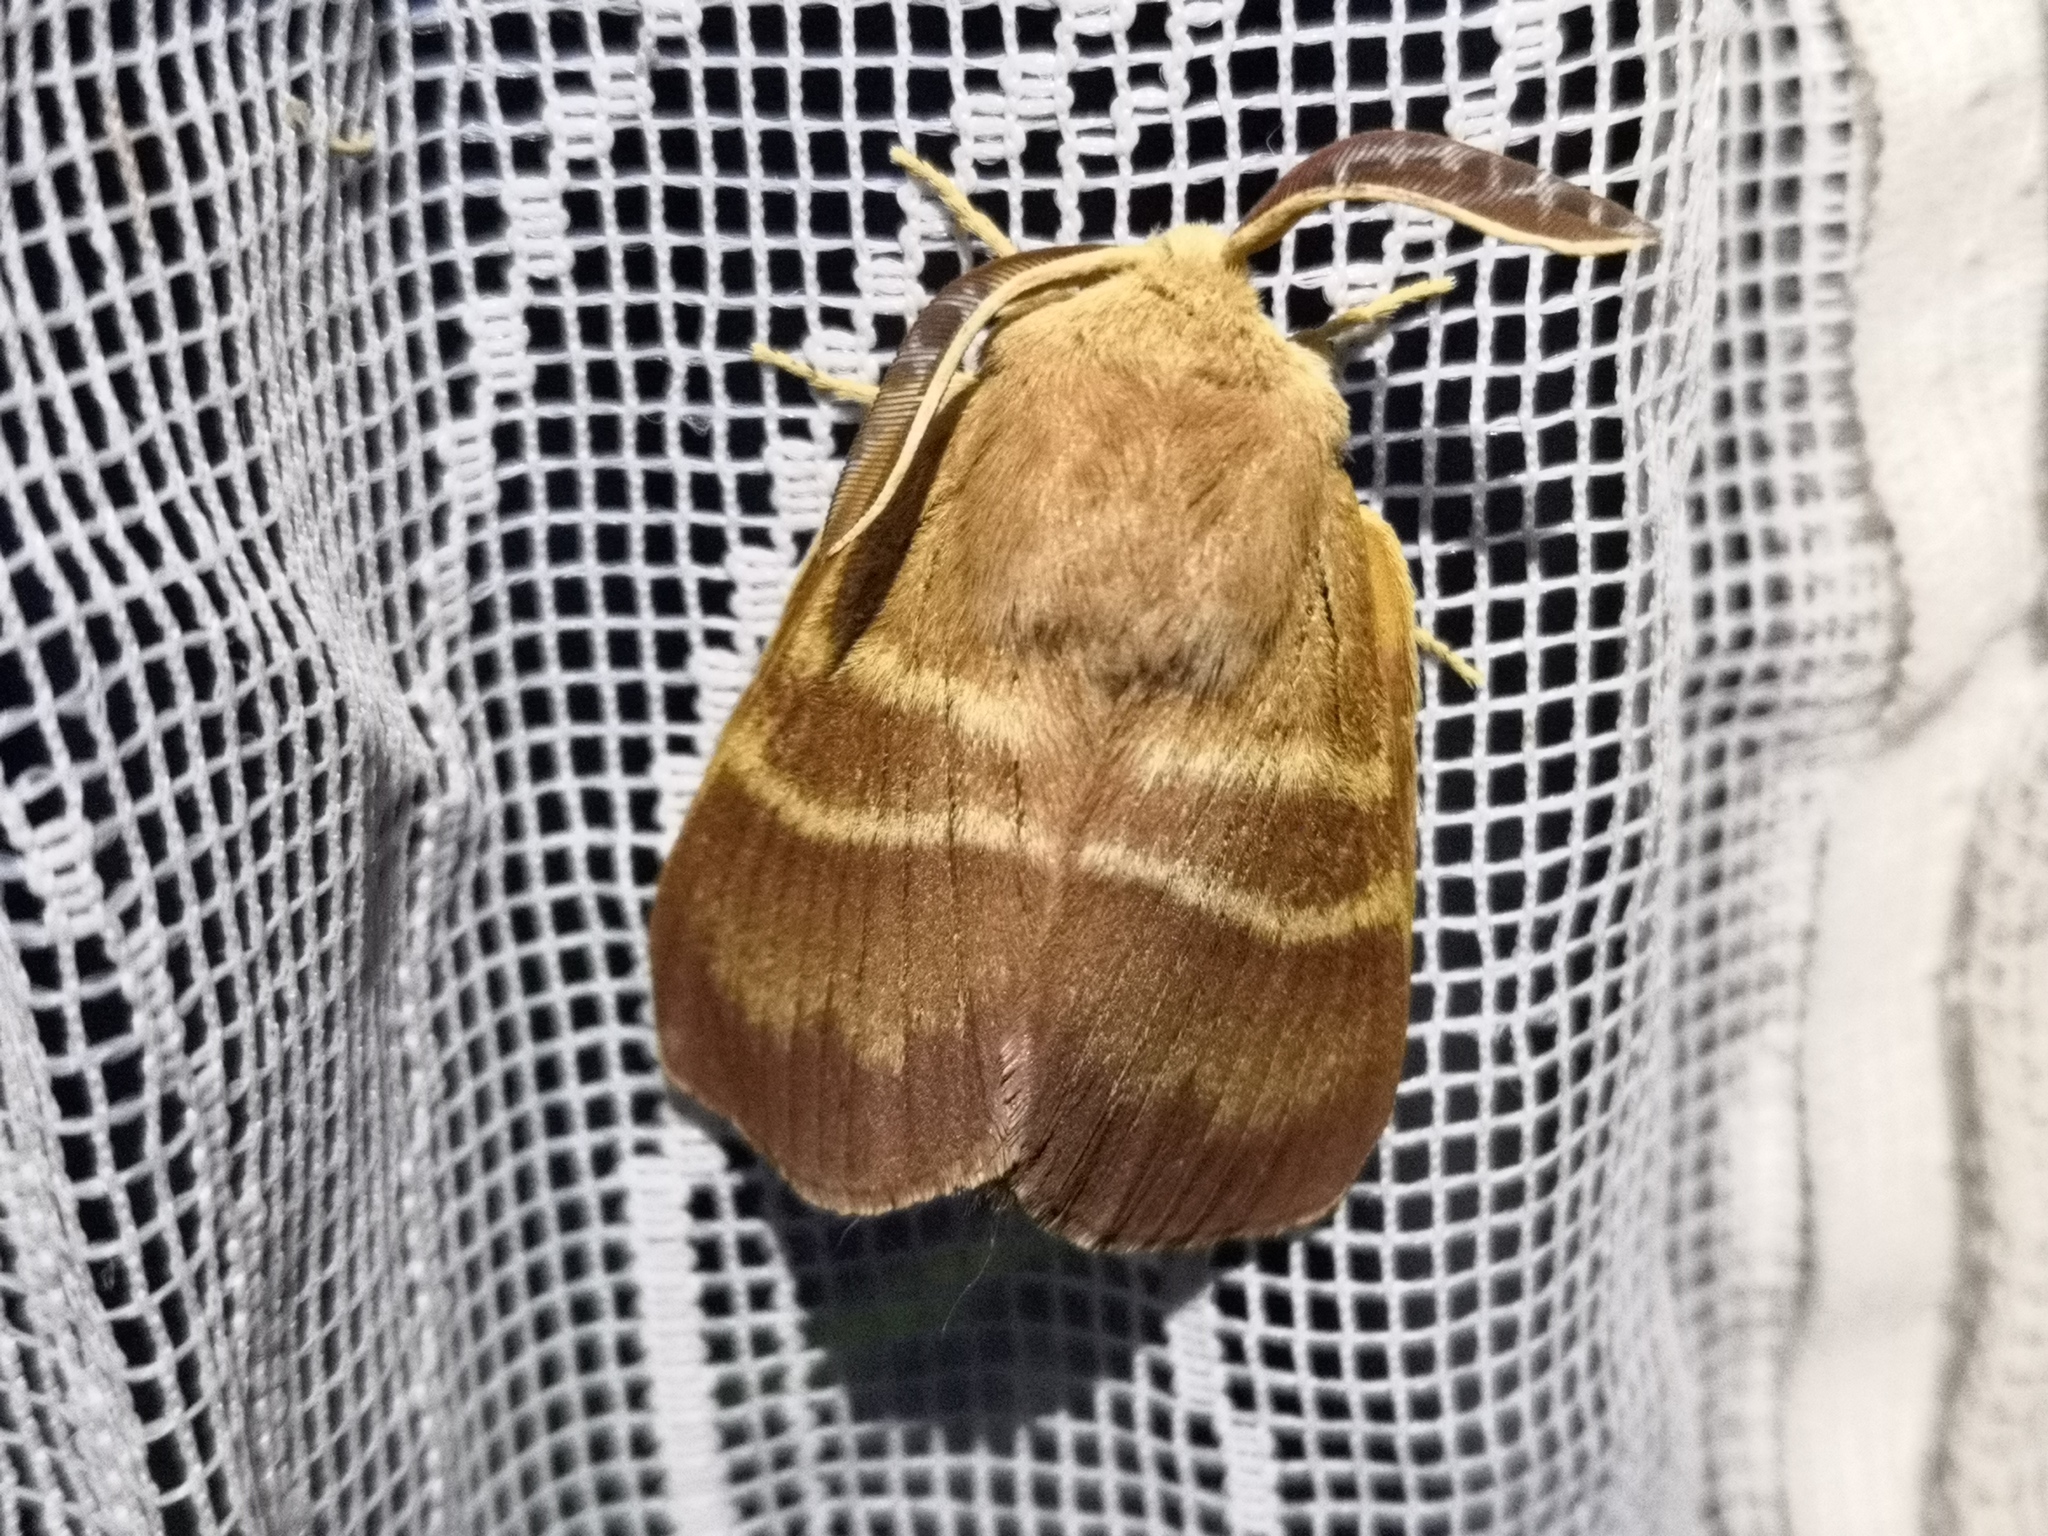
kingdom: Animalia
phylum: Arthropoda
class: Insecta
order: Lepidoptera
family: Lasiocampidae
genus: Macrothylacia
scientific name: Macrothylacia rubi
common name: Fox moth
